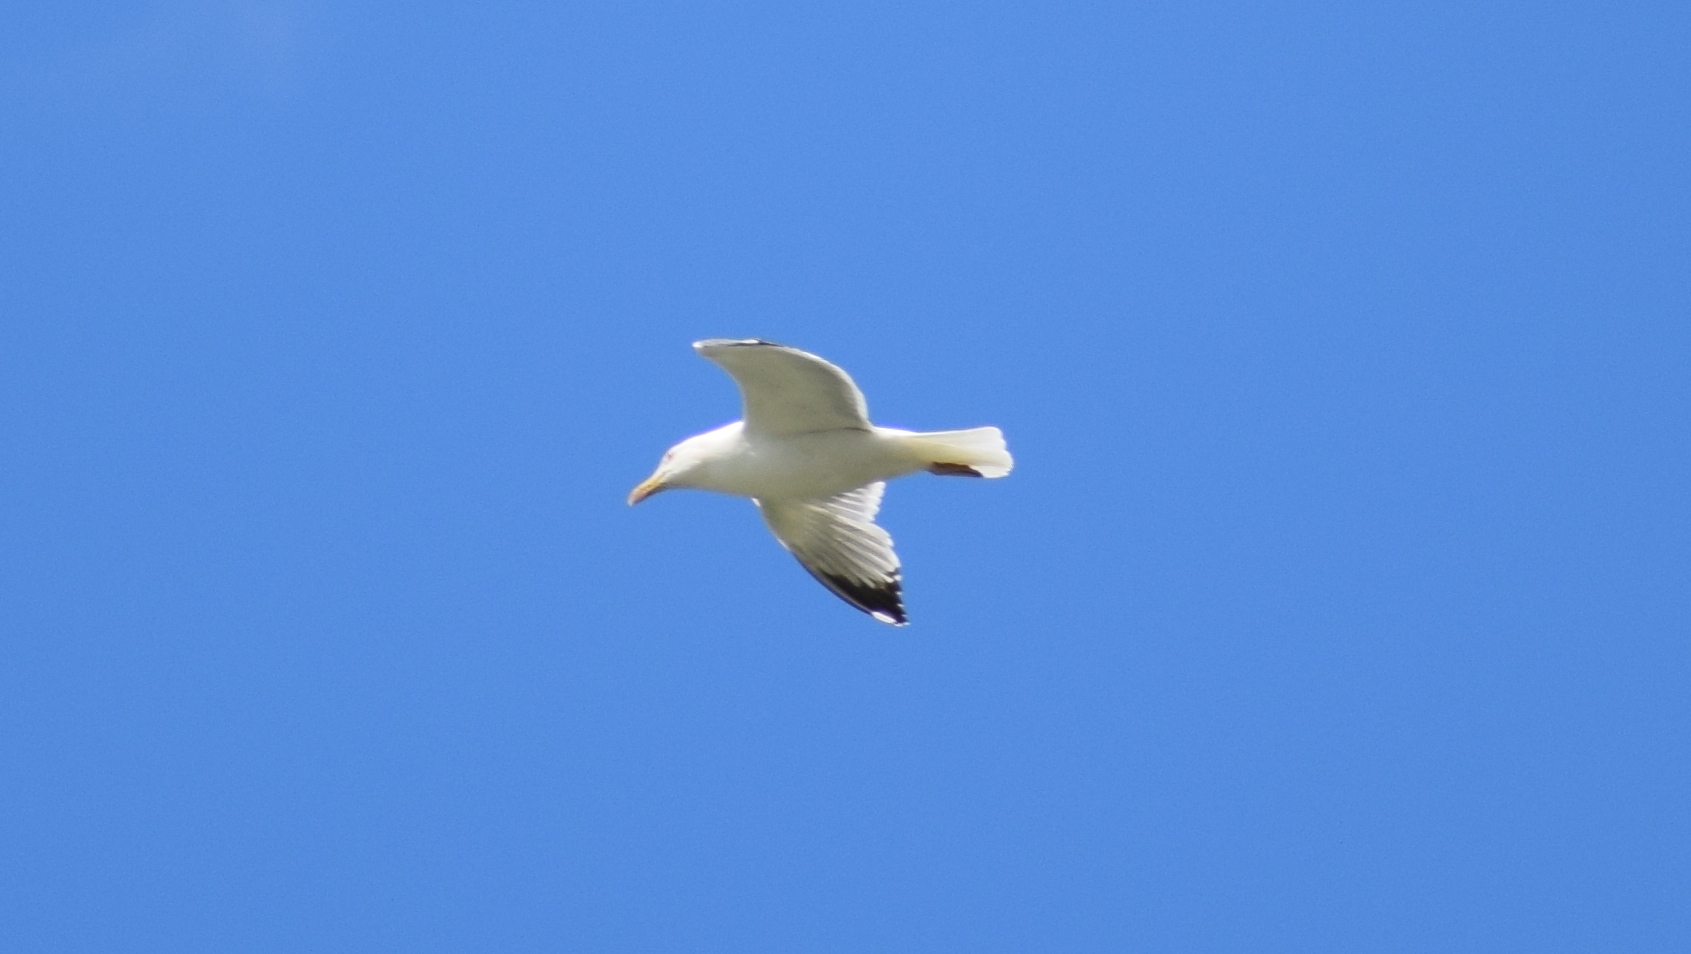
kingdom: Animalia
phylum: Chordata
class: Aves
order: Charadriiformes
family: Laridae
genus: Larus
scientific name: Larus michahellis
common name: Yellow-legged gull
